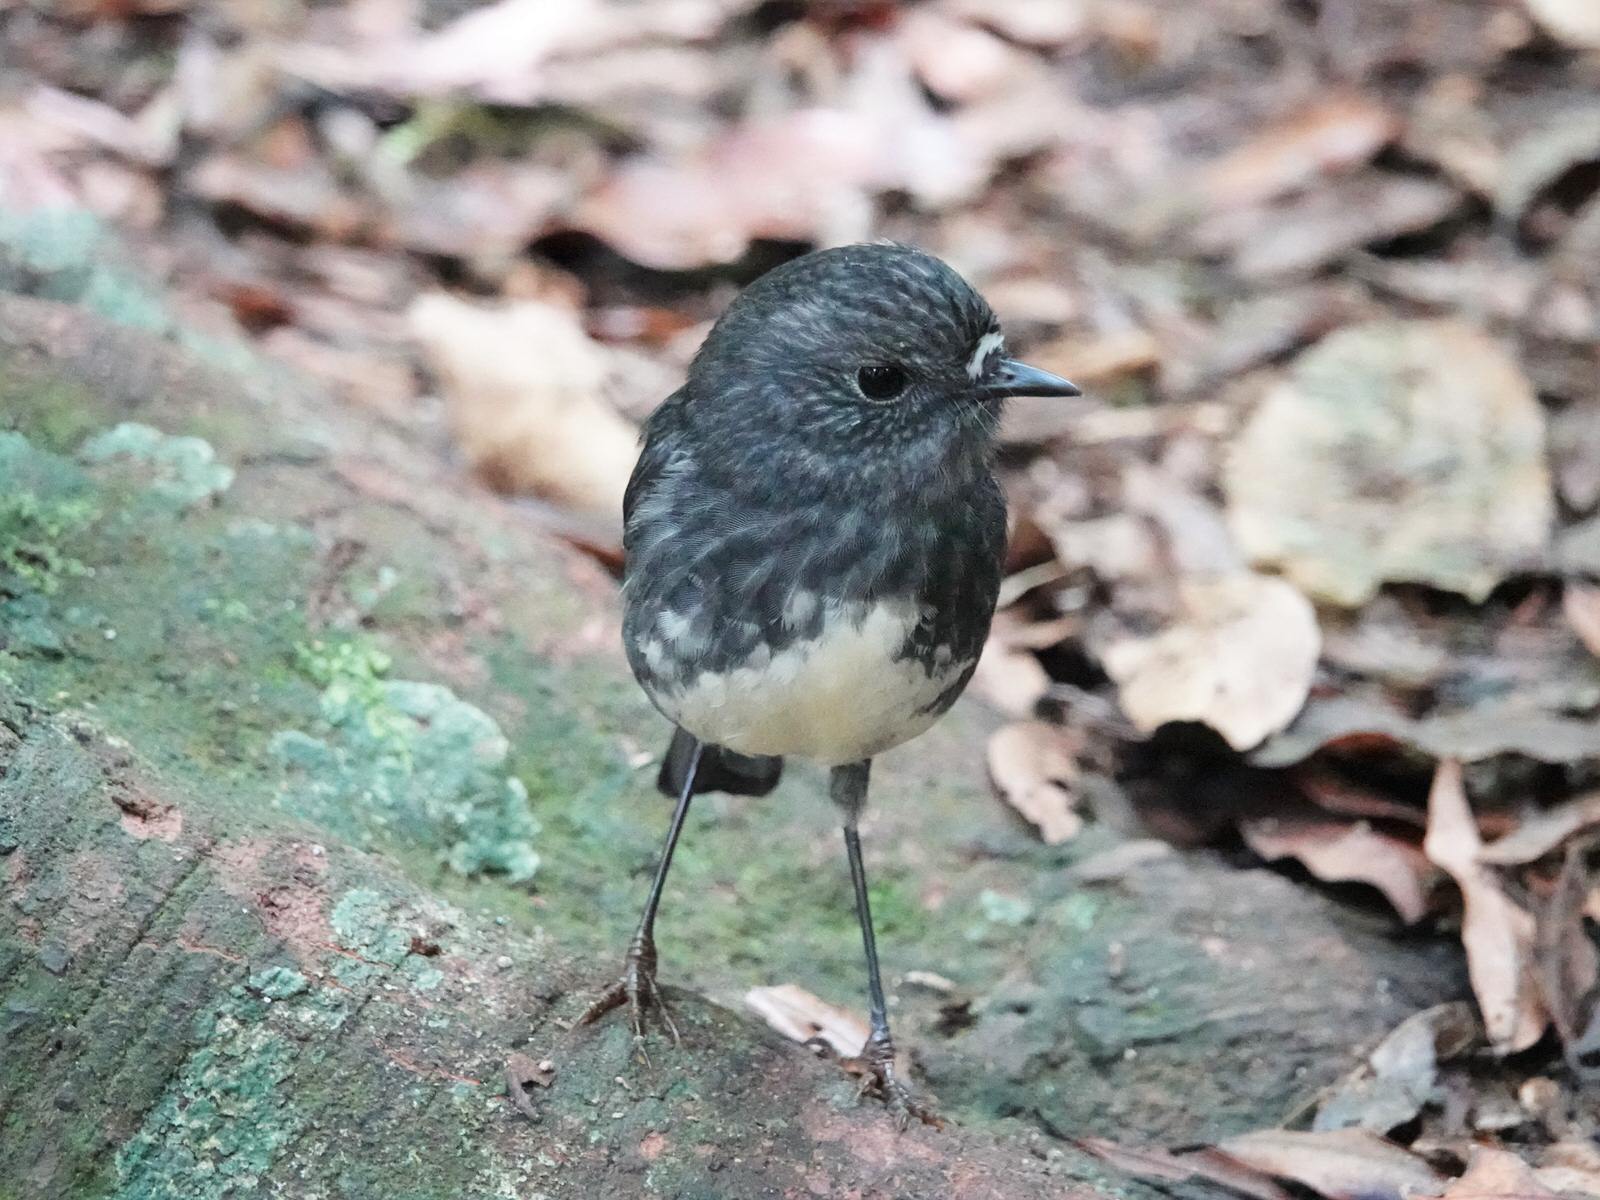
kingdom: Animalia
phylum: Chordata
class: Aves
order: Passeriformes
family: Petroicidae
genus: Petroica
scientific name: Petroica australis
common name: New zealand robin
